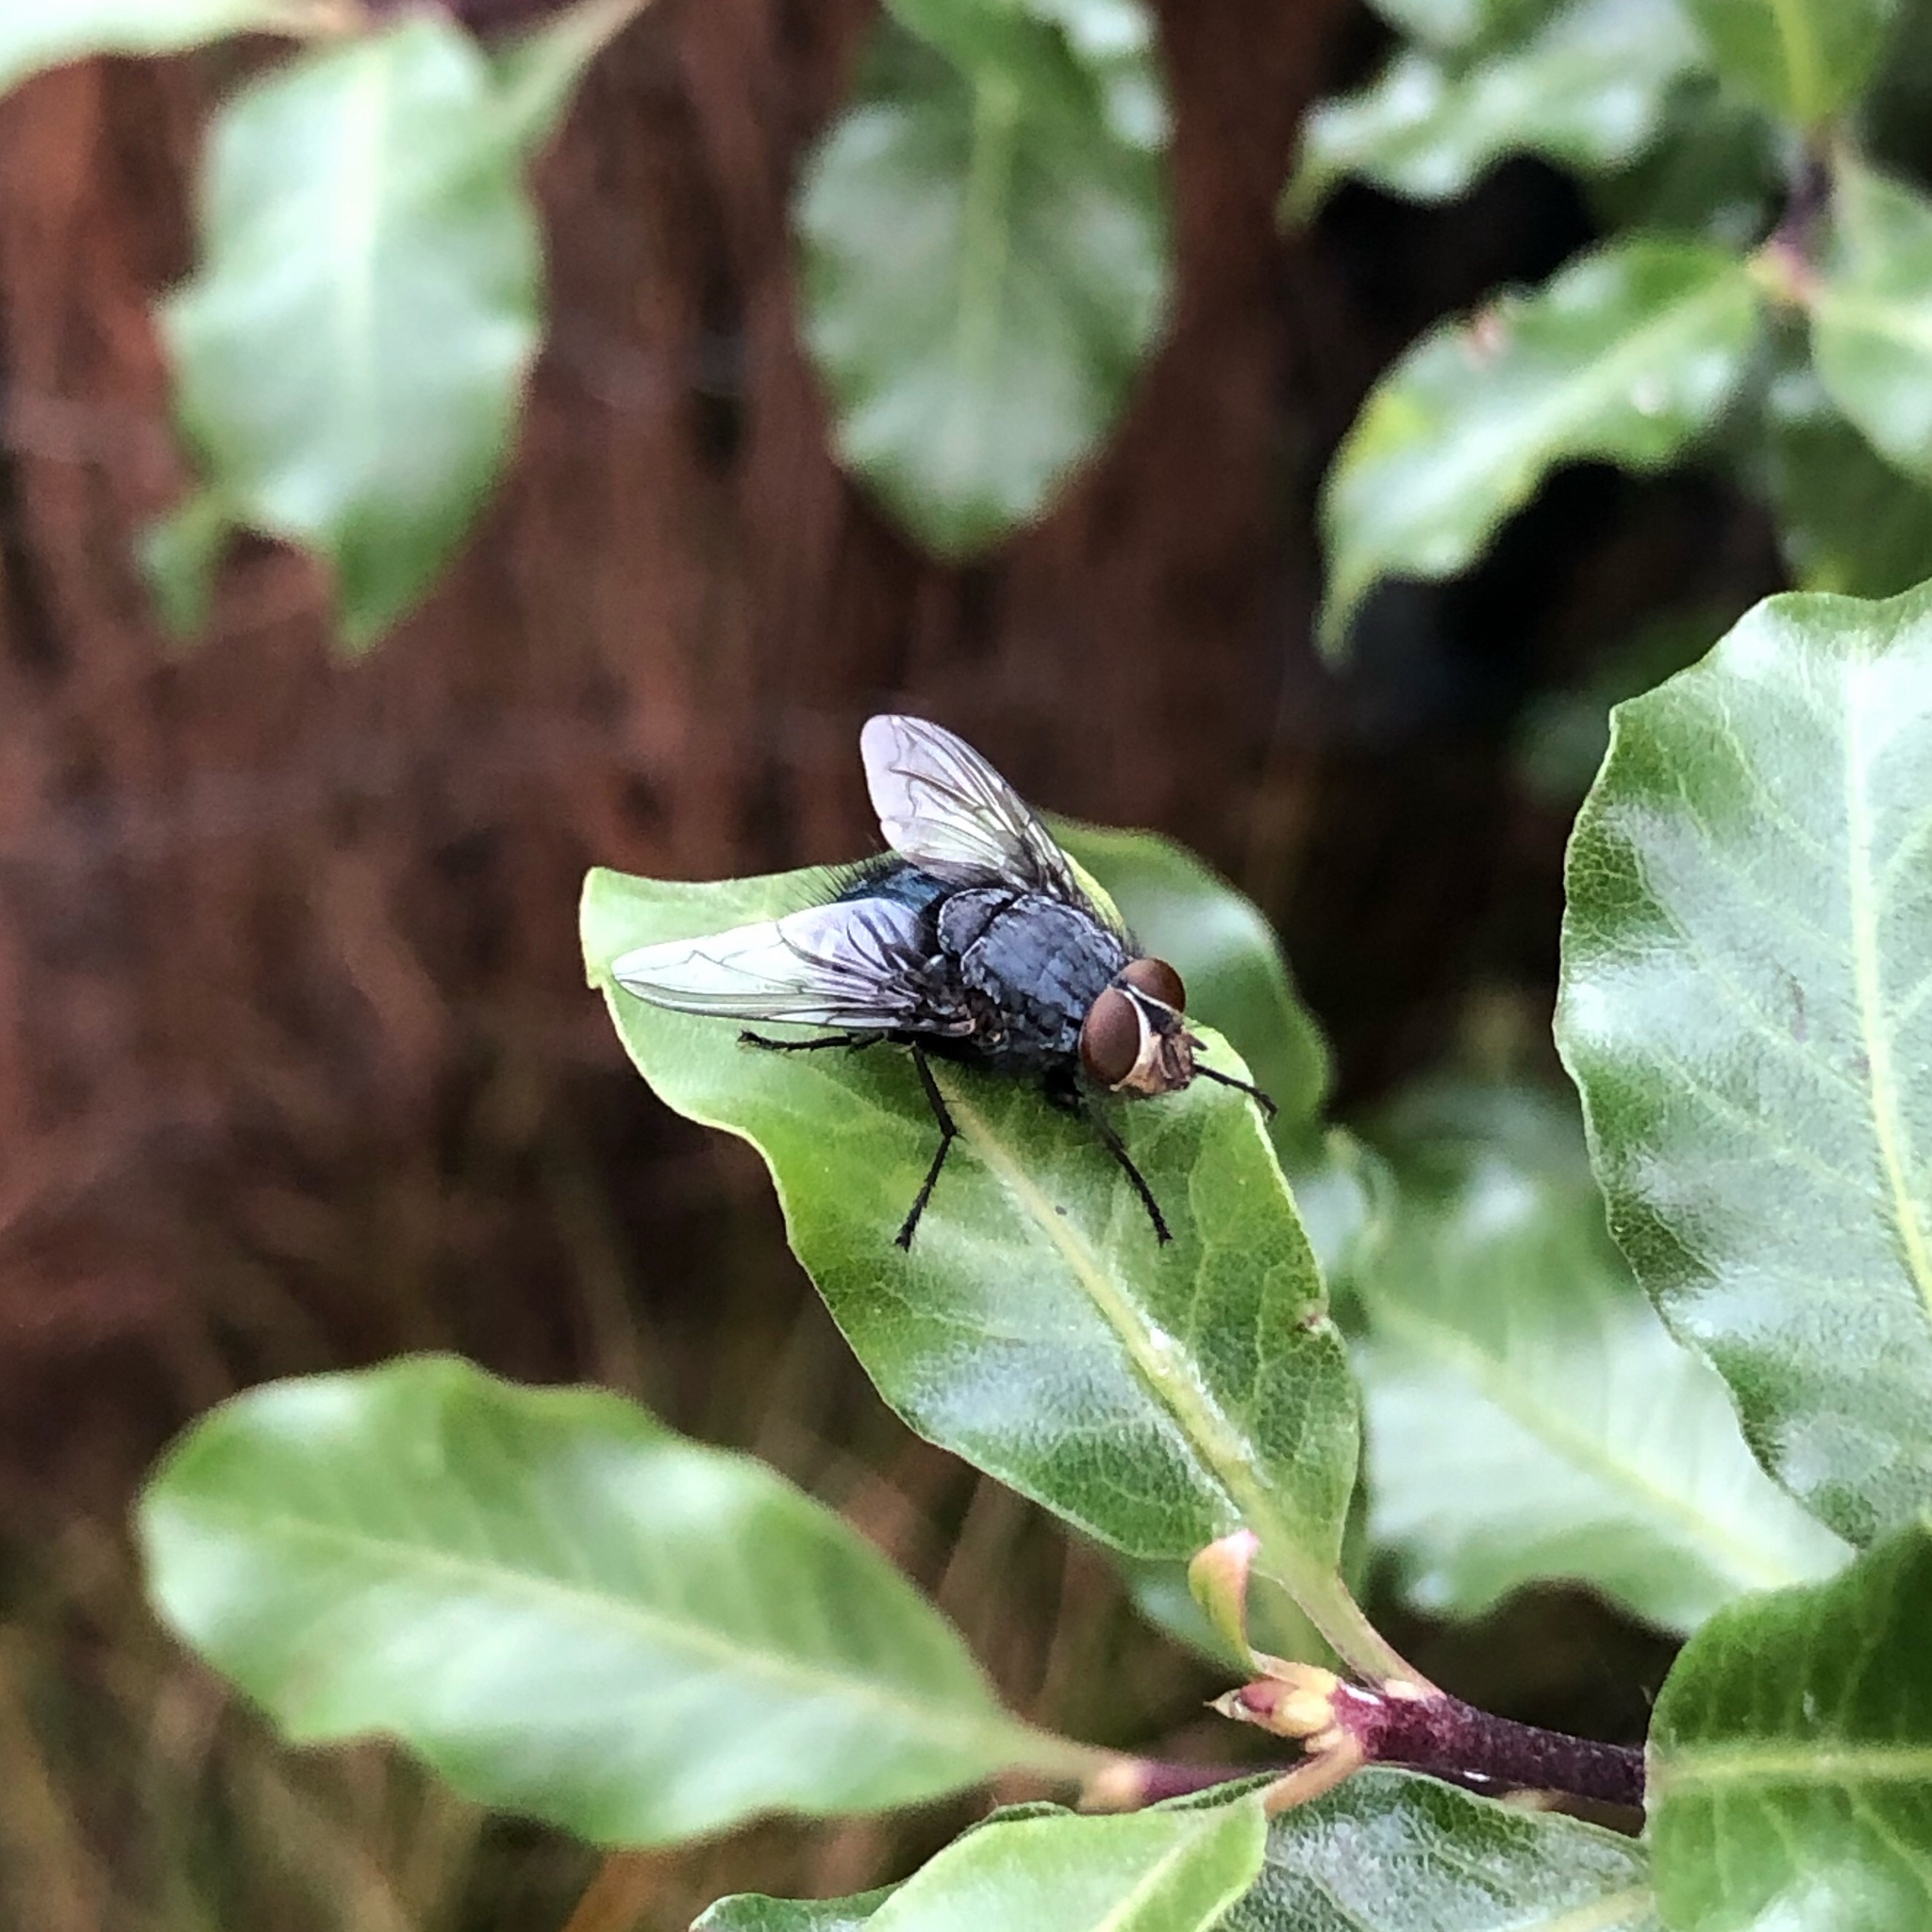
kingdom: Animalia
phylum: Arthropoda
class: Insecta
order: Diptera
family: Calliphoridae
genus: Calliphora
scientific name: Calliphora vicina
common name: Common blow flie
